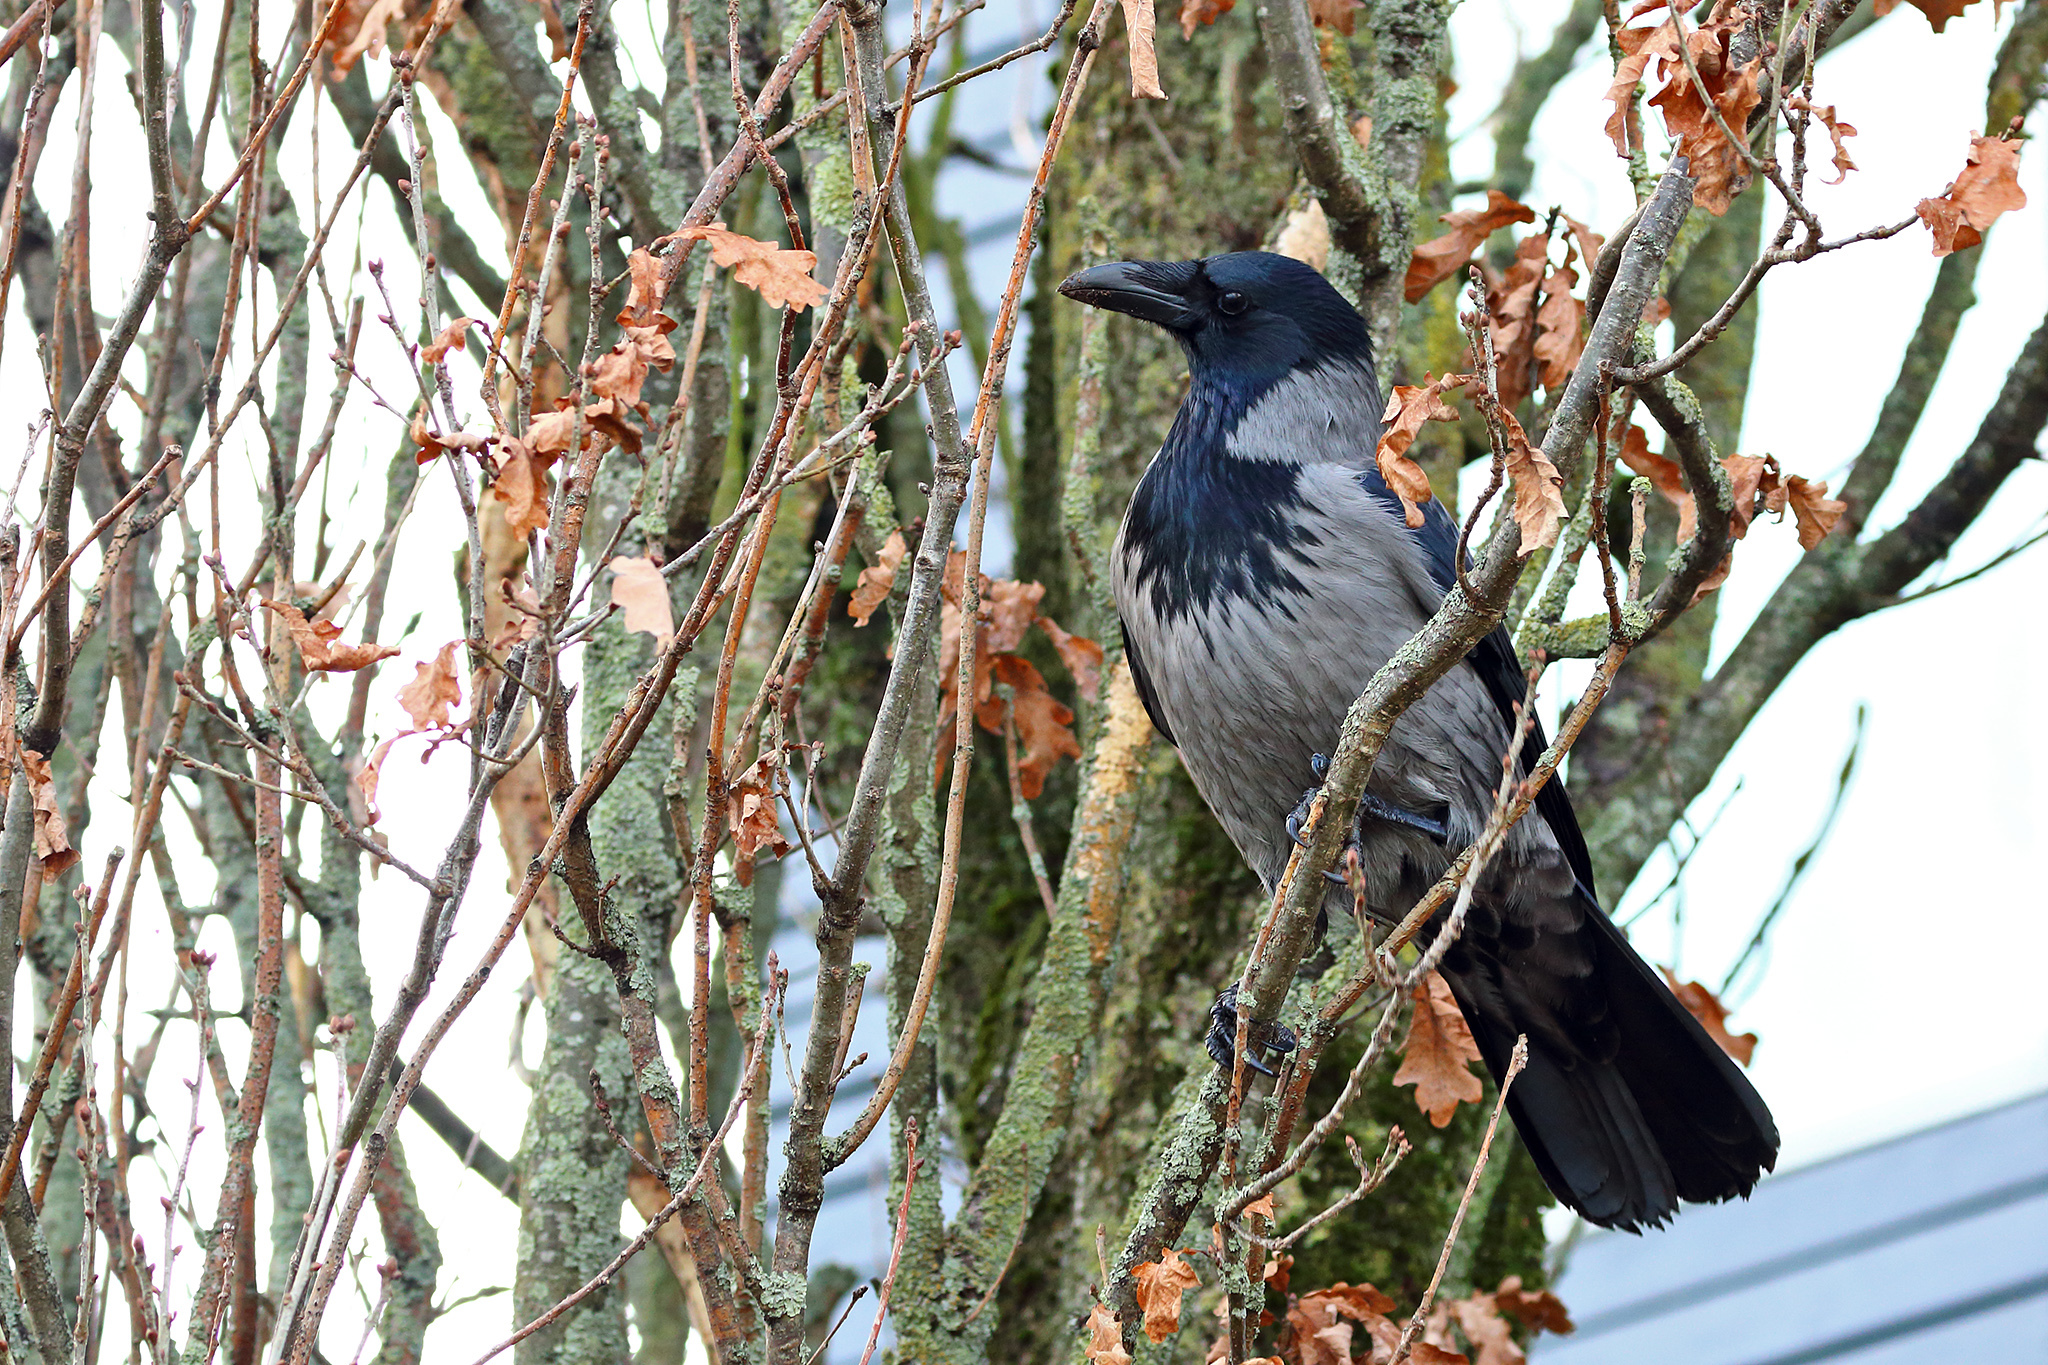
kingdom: Animalia
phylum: Chordata
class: Aves
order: Passeriformes
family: Corvidae
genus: Corvus
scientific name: Corvus
